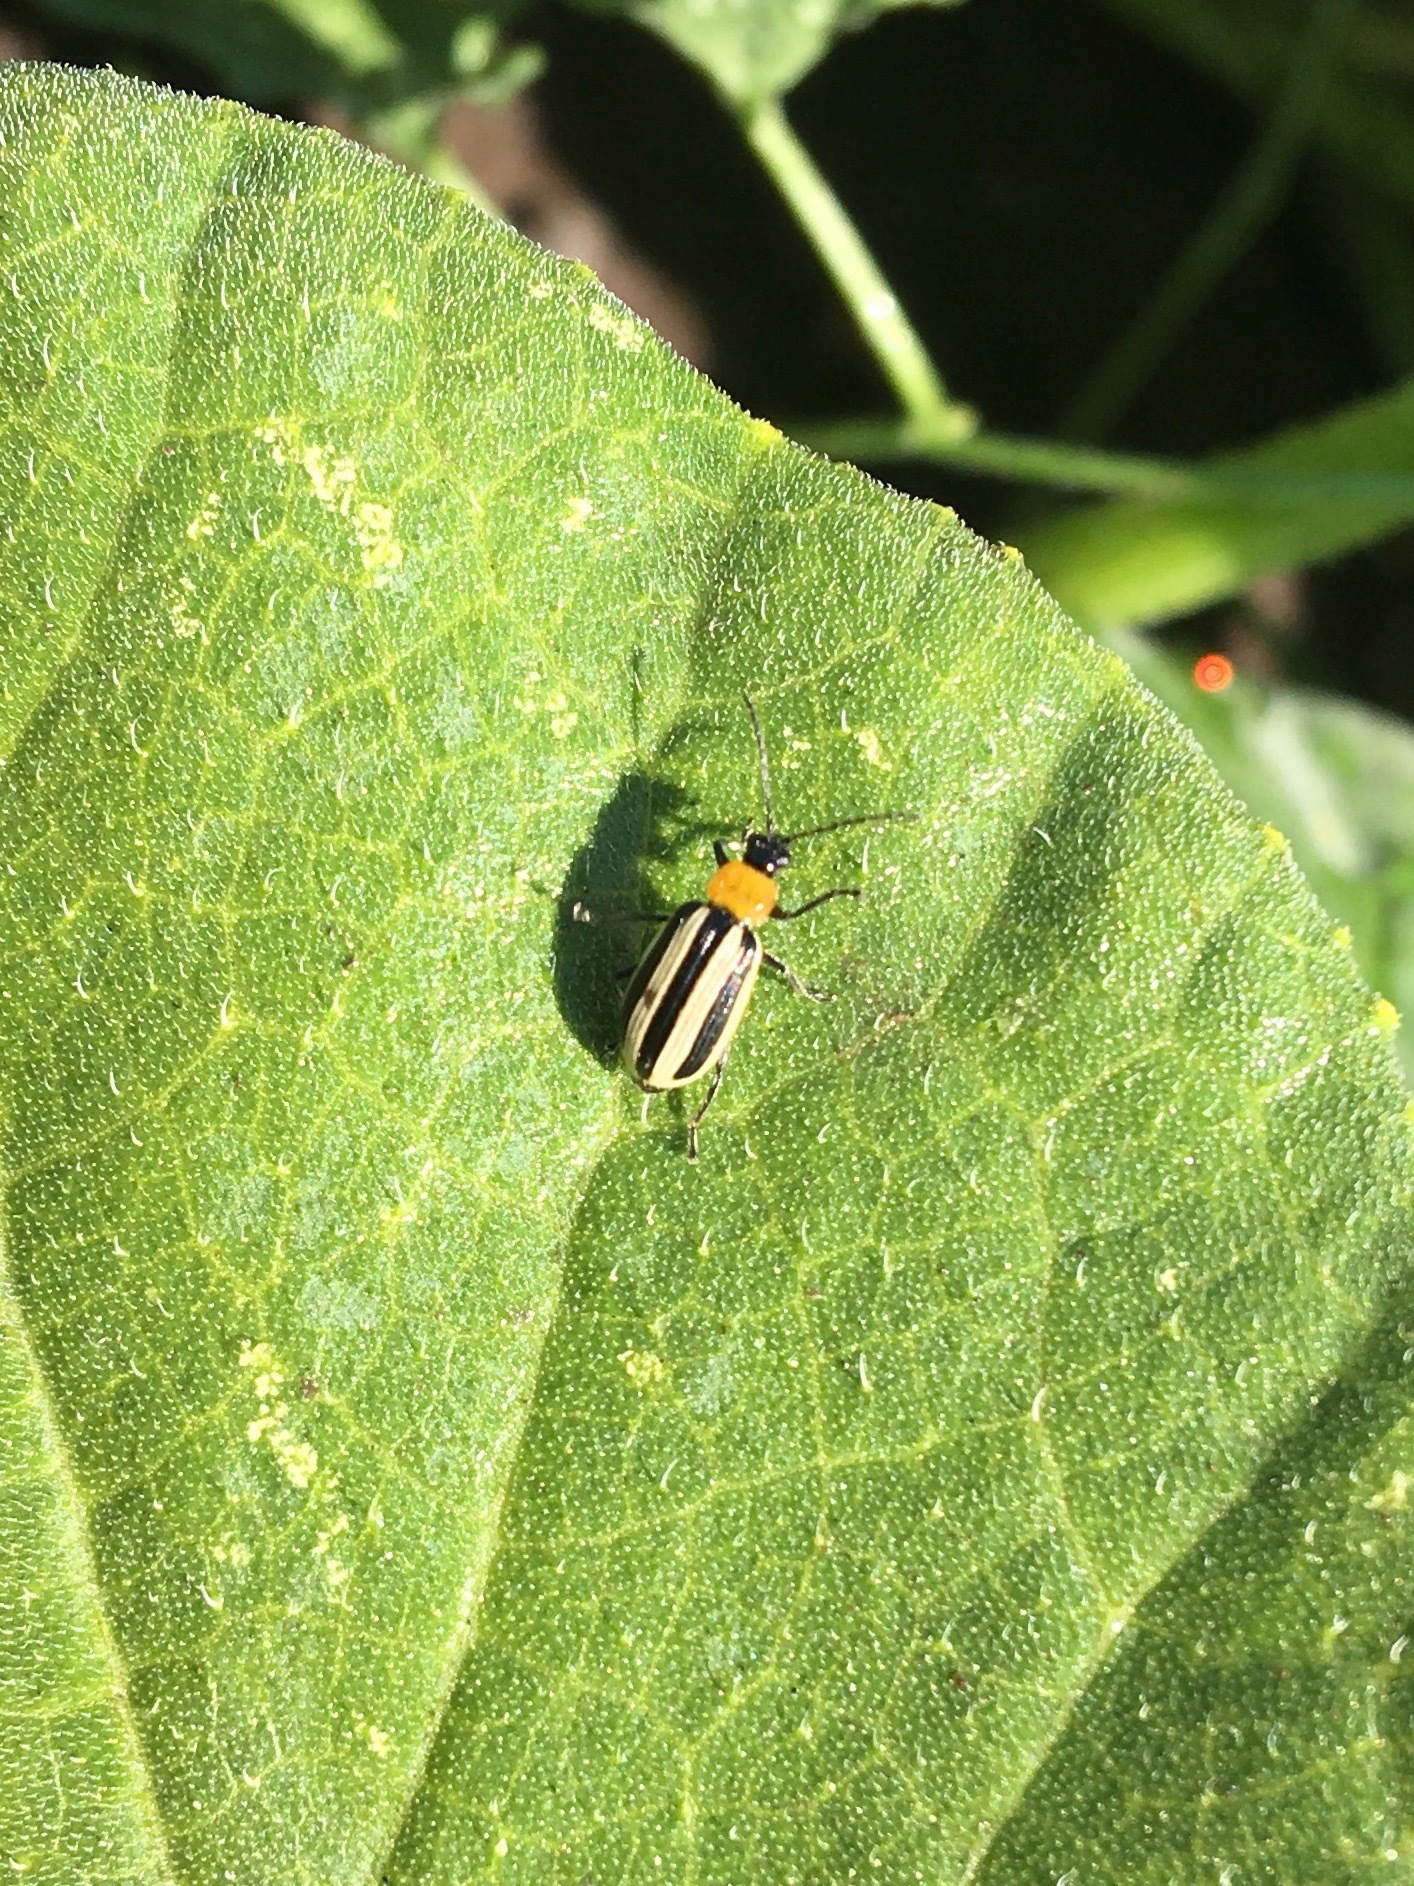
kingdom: Animalia
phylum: Arthropoda
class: Insecta
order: Coleoptera
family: Chrysomelidae
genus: Acalymma
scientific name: Acalymma trivittatum
